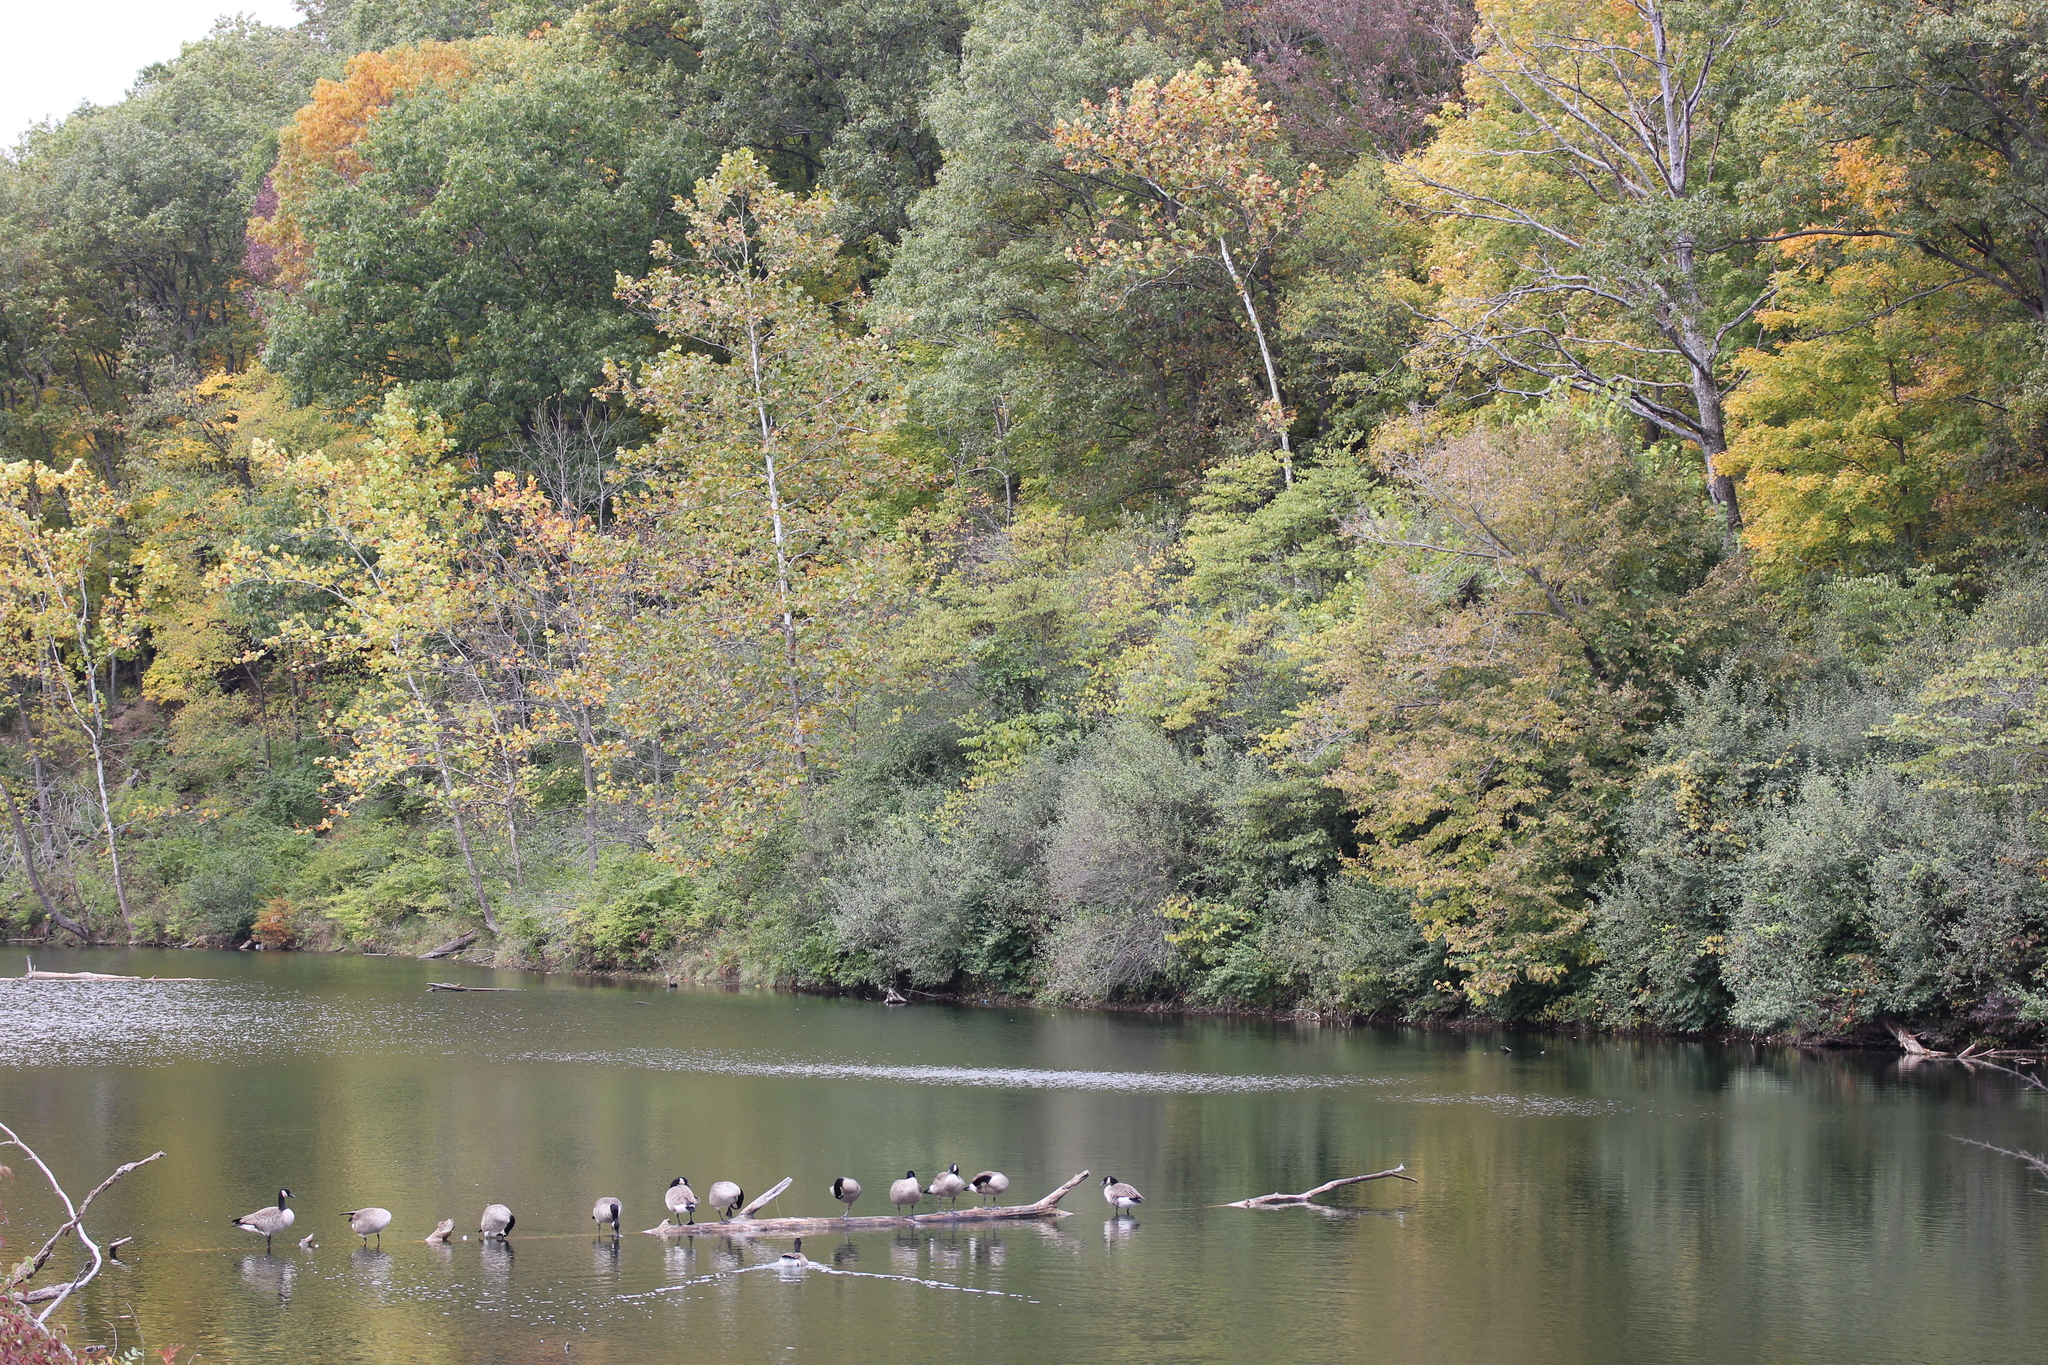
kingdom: Plantae
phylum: Tracheophyta
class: Magnoliopsida
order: Proteales
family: Platanaceae
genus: Platanus
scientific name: Platanus occidentalis
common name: American sycamore
